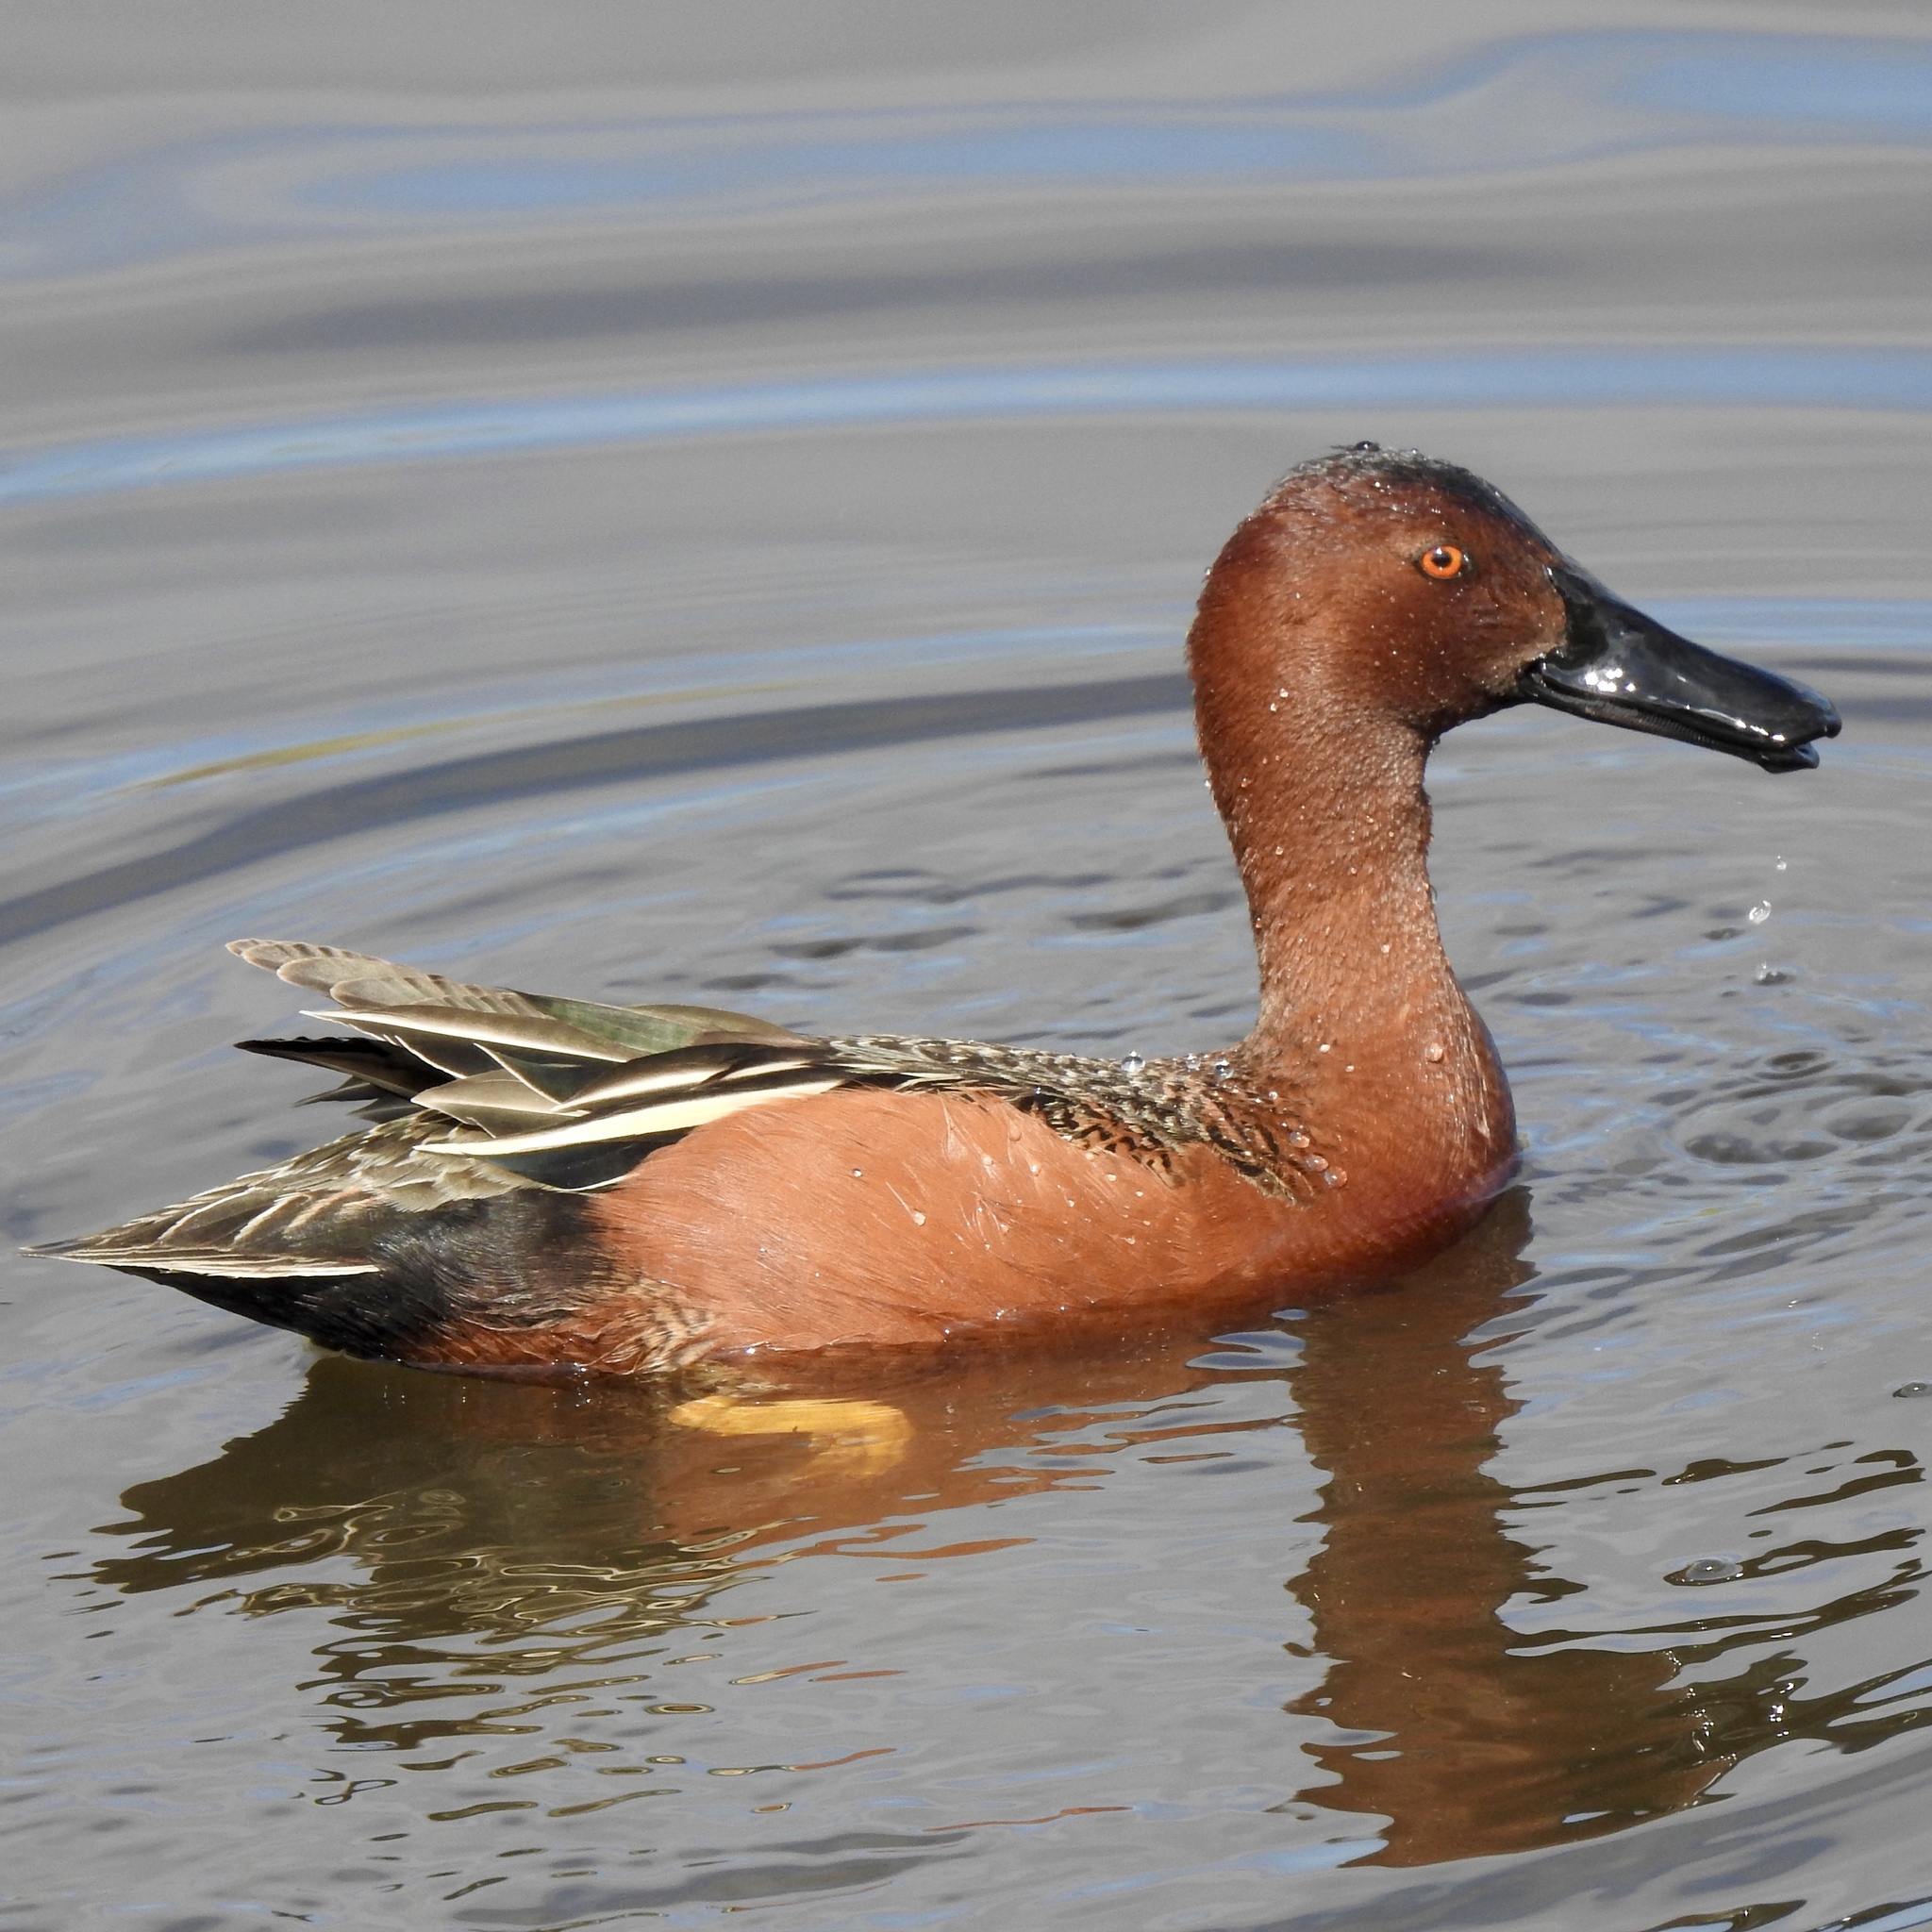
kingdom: Animalia
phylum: Chordata
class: Aves
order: Anseriformes
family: Anatidae
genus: Spatula
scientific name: Spatula cyanoptera
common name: Cinnamon teal
